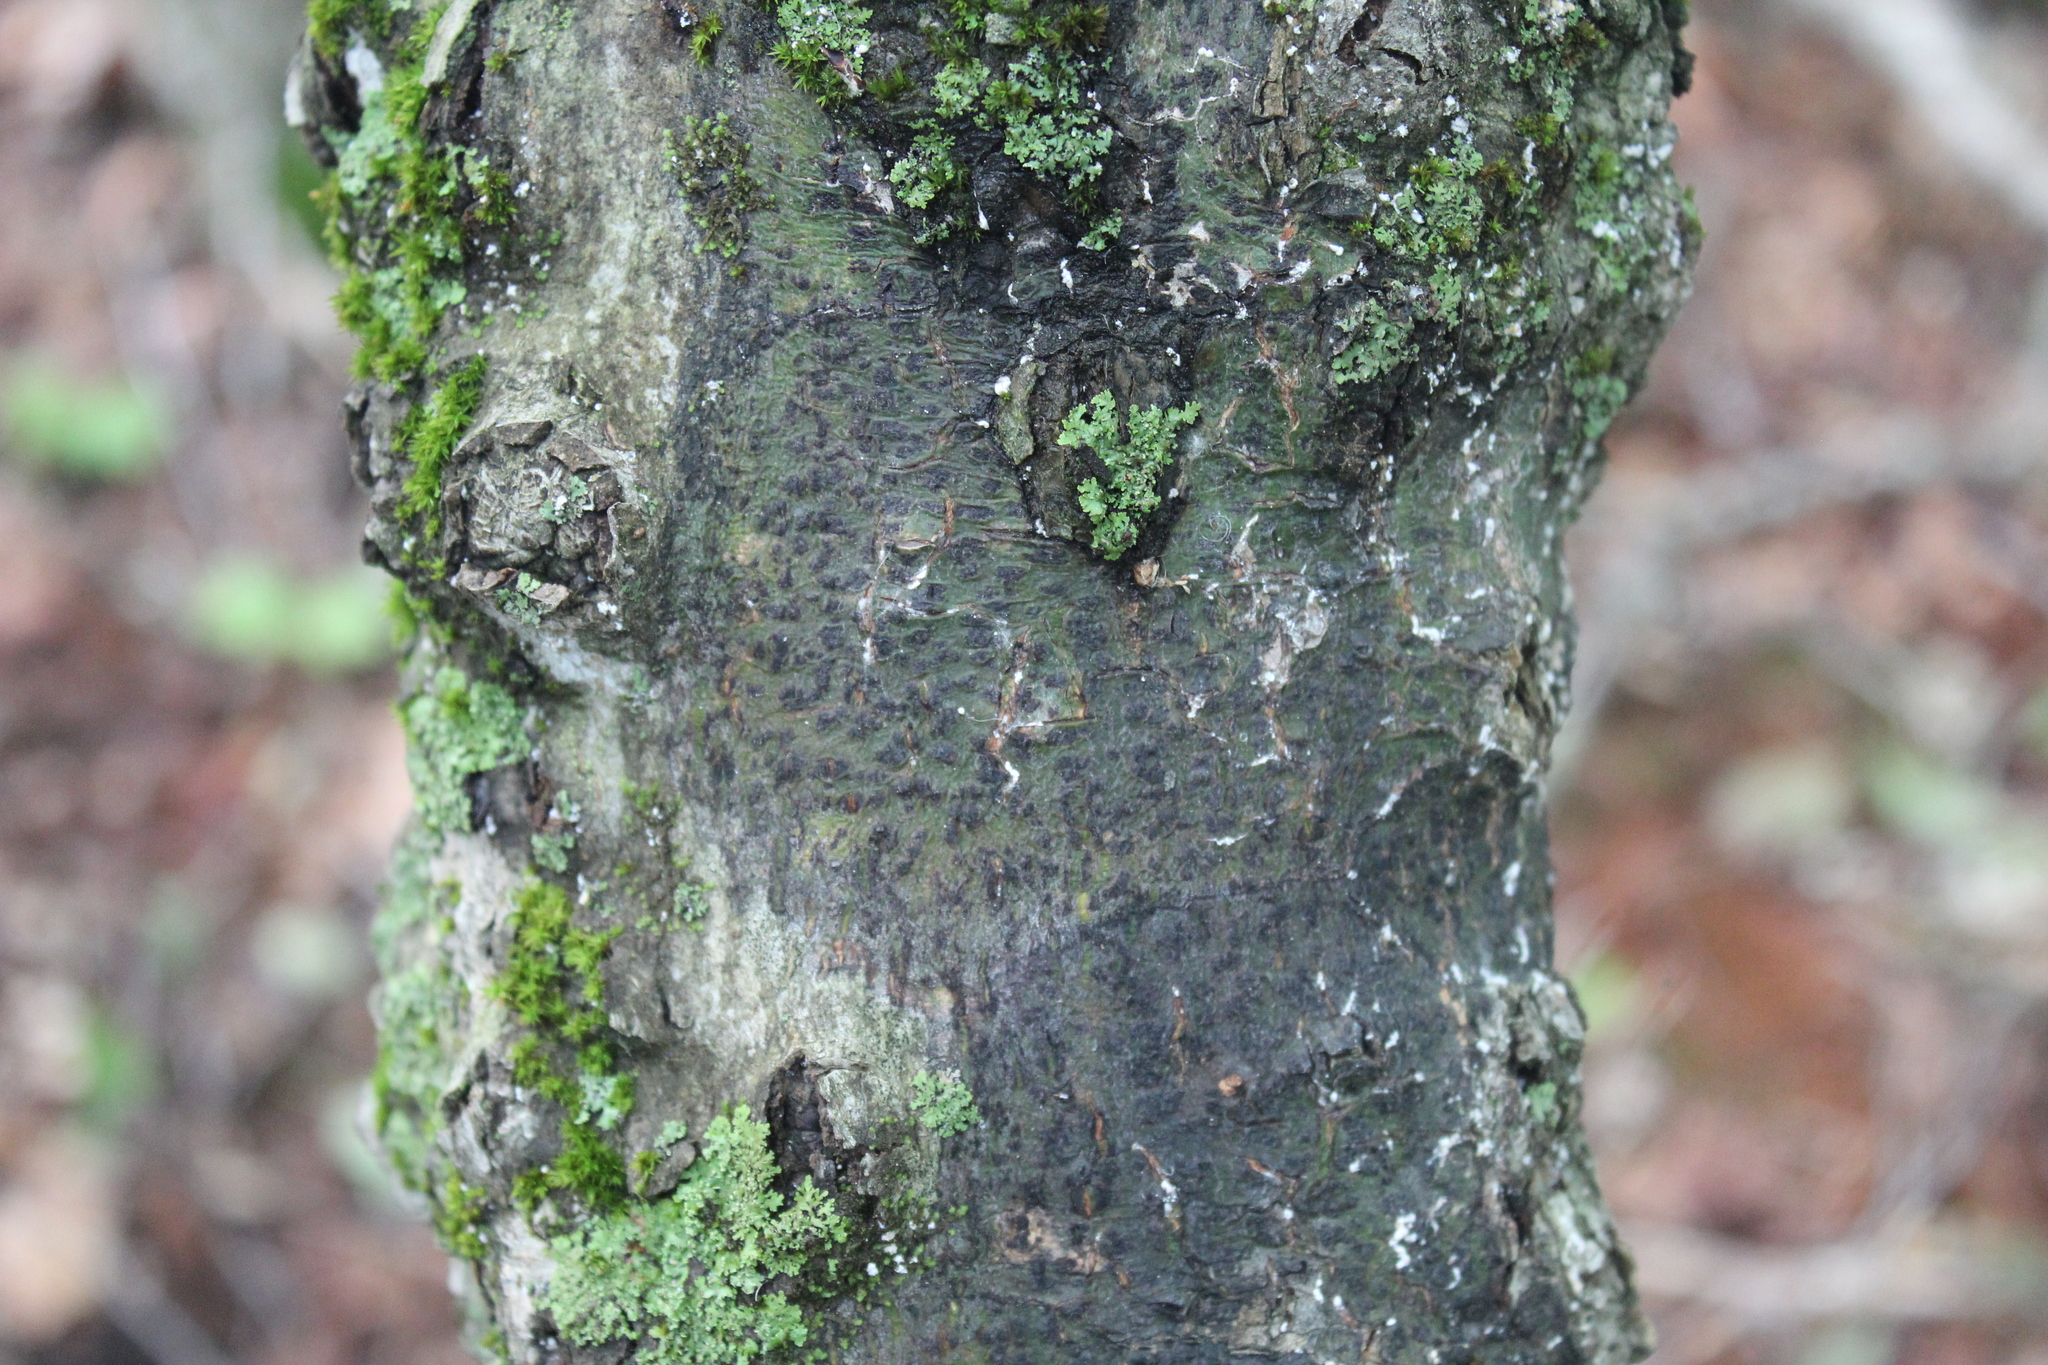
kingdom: Fungi
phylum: Ascomycota
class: Dothideomycetes
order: Trypetheliales
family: Trypetheliaceae
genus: Viridothelium
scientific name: Viridothelium virens
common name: Speckled blister lichen
